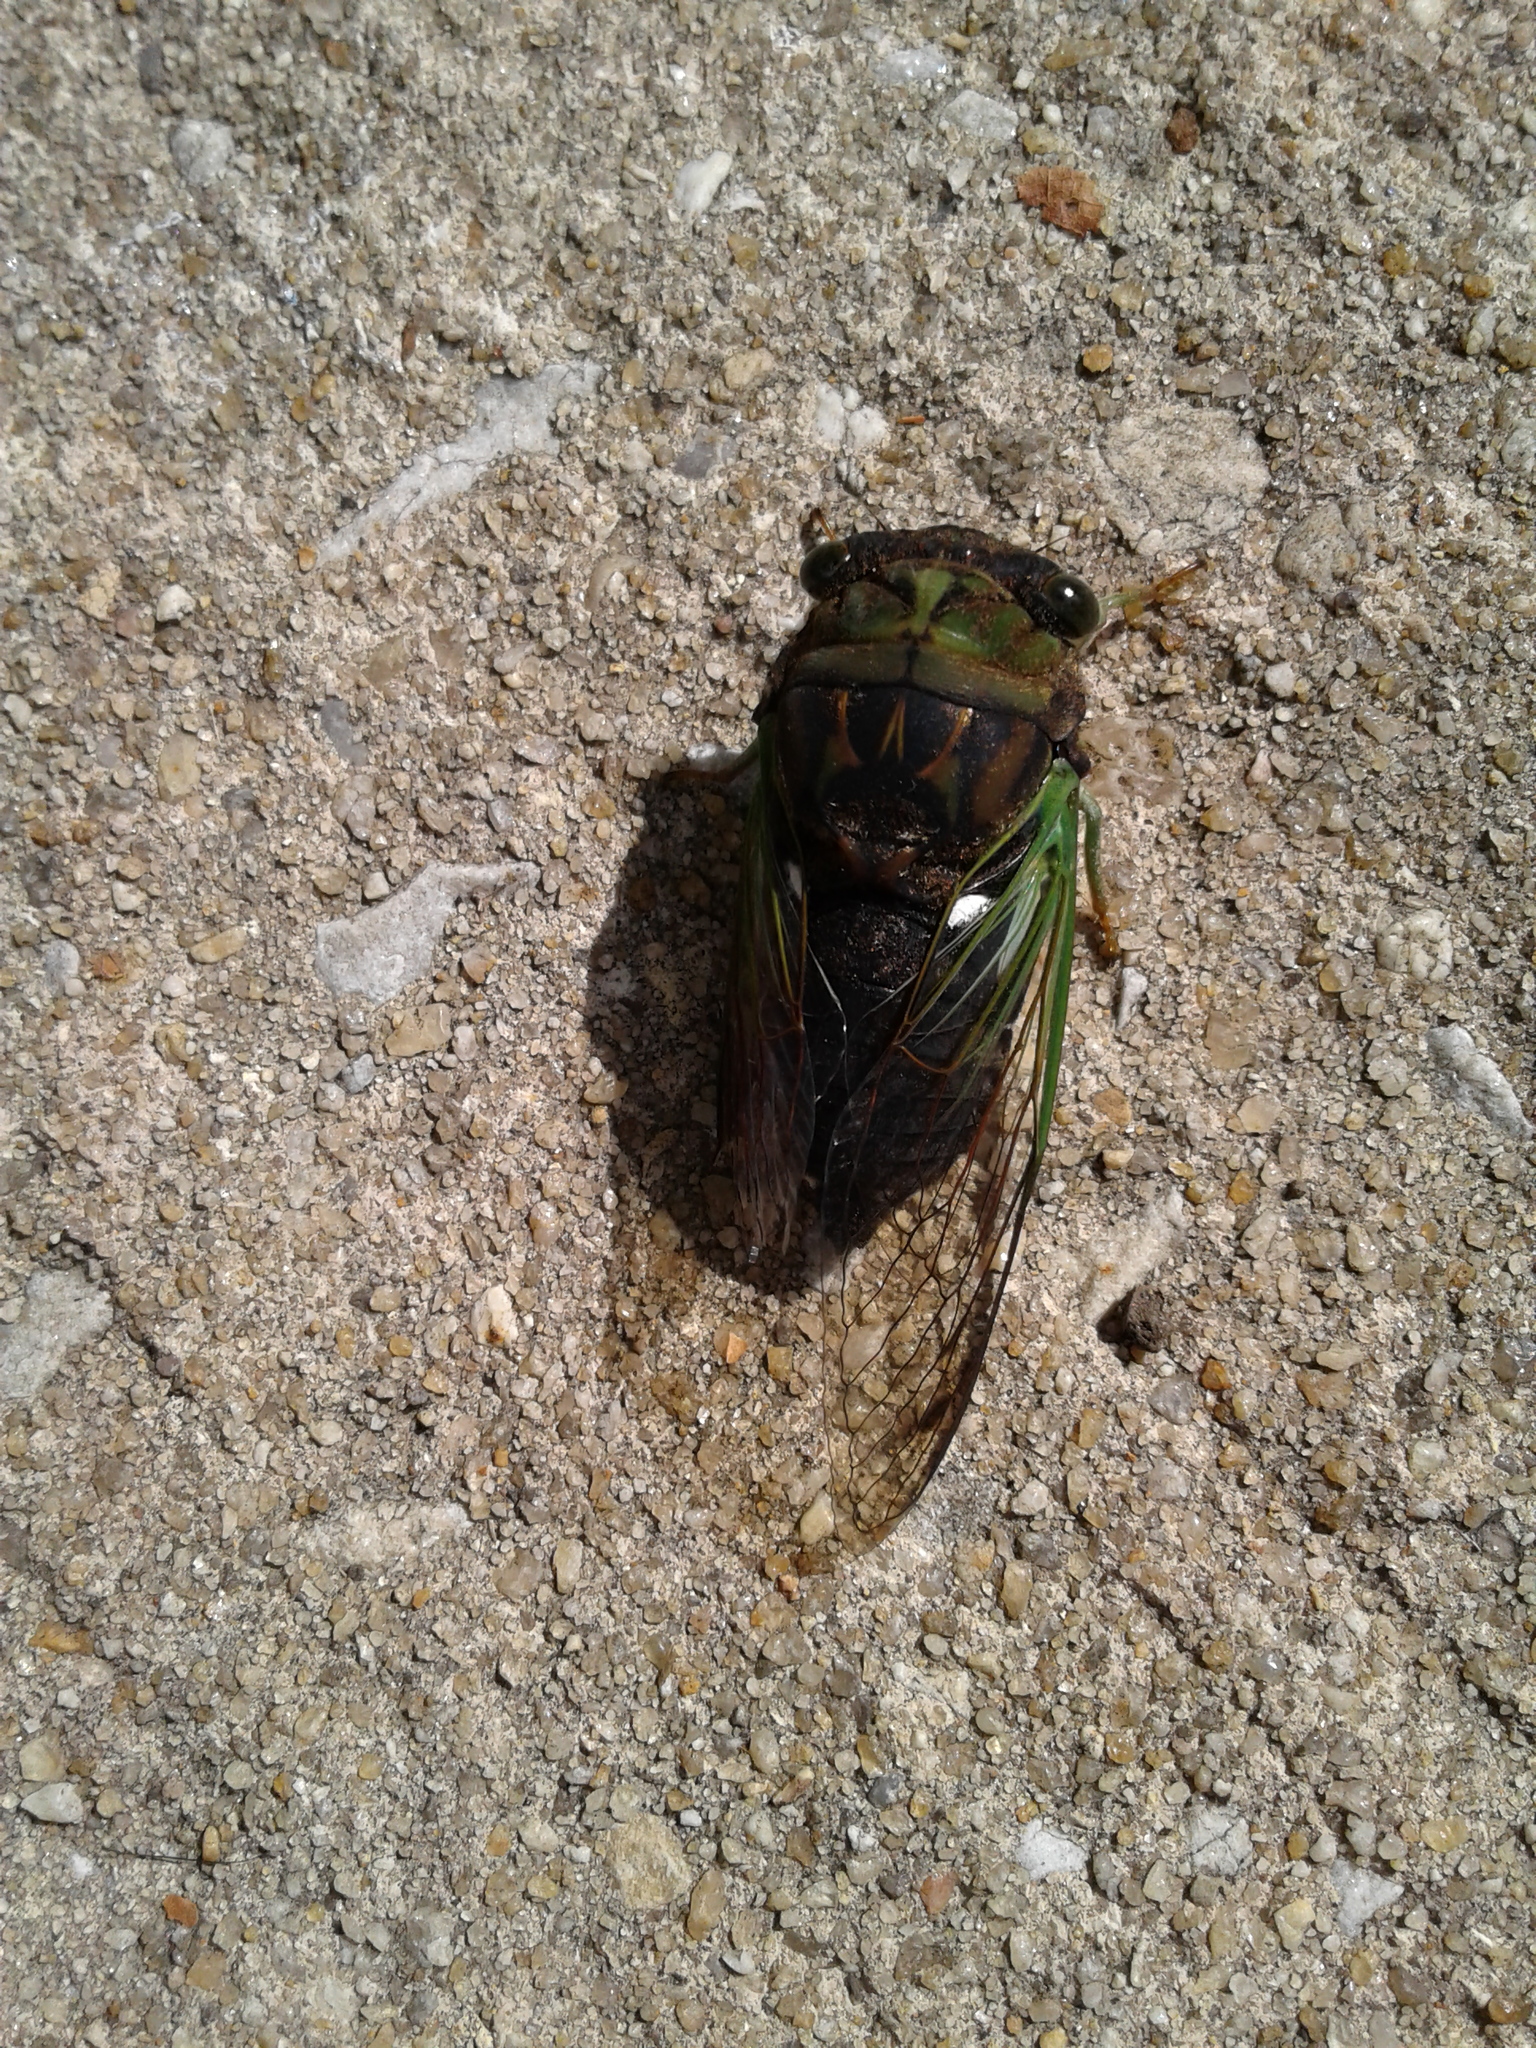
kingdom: Animalia
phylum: Arthropoda
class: Insecta
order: Hemiptera
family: Cicadidae
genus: Neotibicen
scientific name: Neotibicen tibicen
